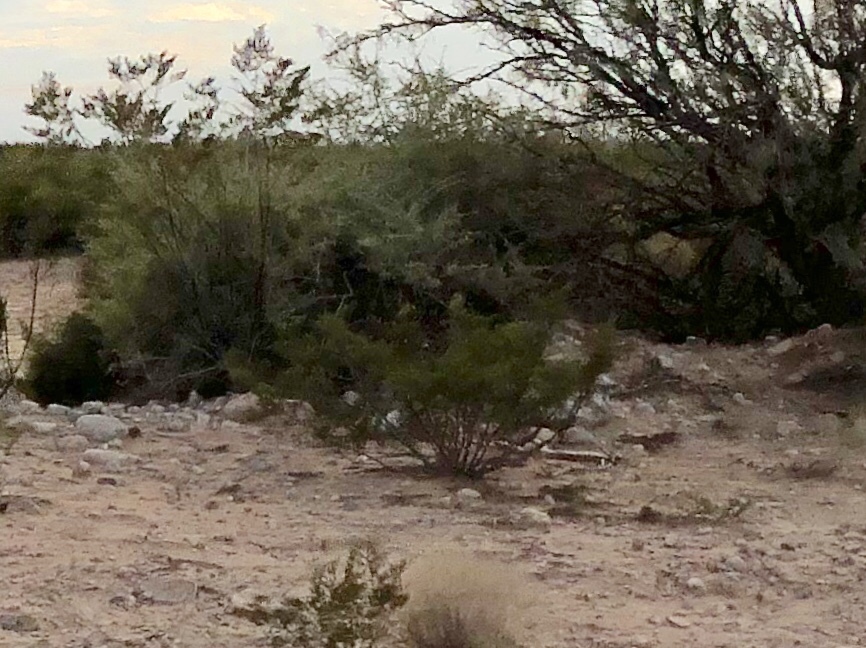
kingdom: Plantae
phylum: Tracheophyta
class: Magnoliopsida
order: Zygophyllales
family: Zygophyllaceae
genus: Larrea
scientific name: Larrea tridentata
